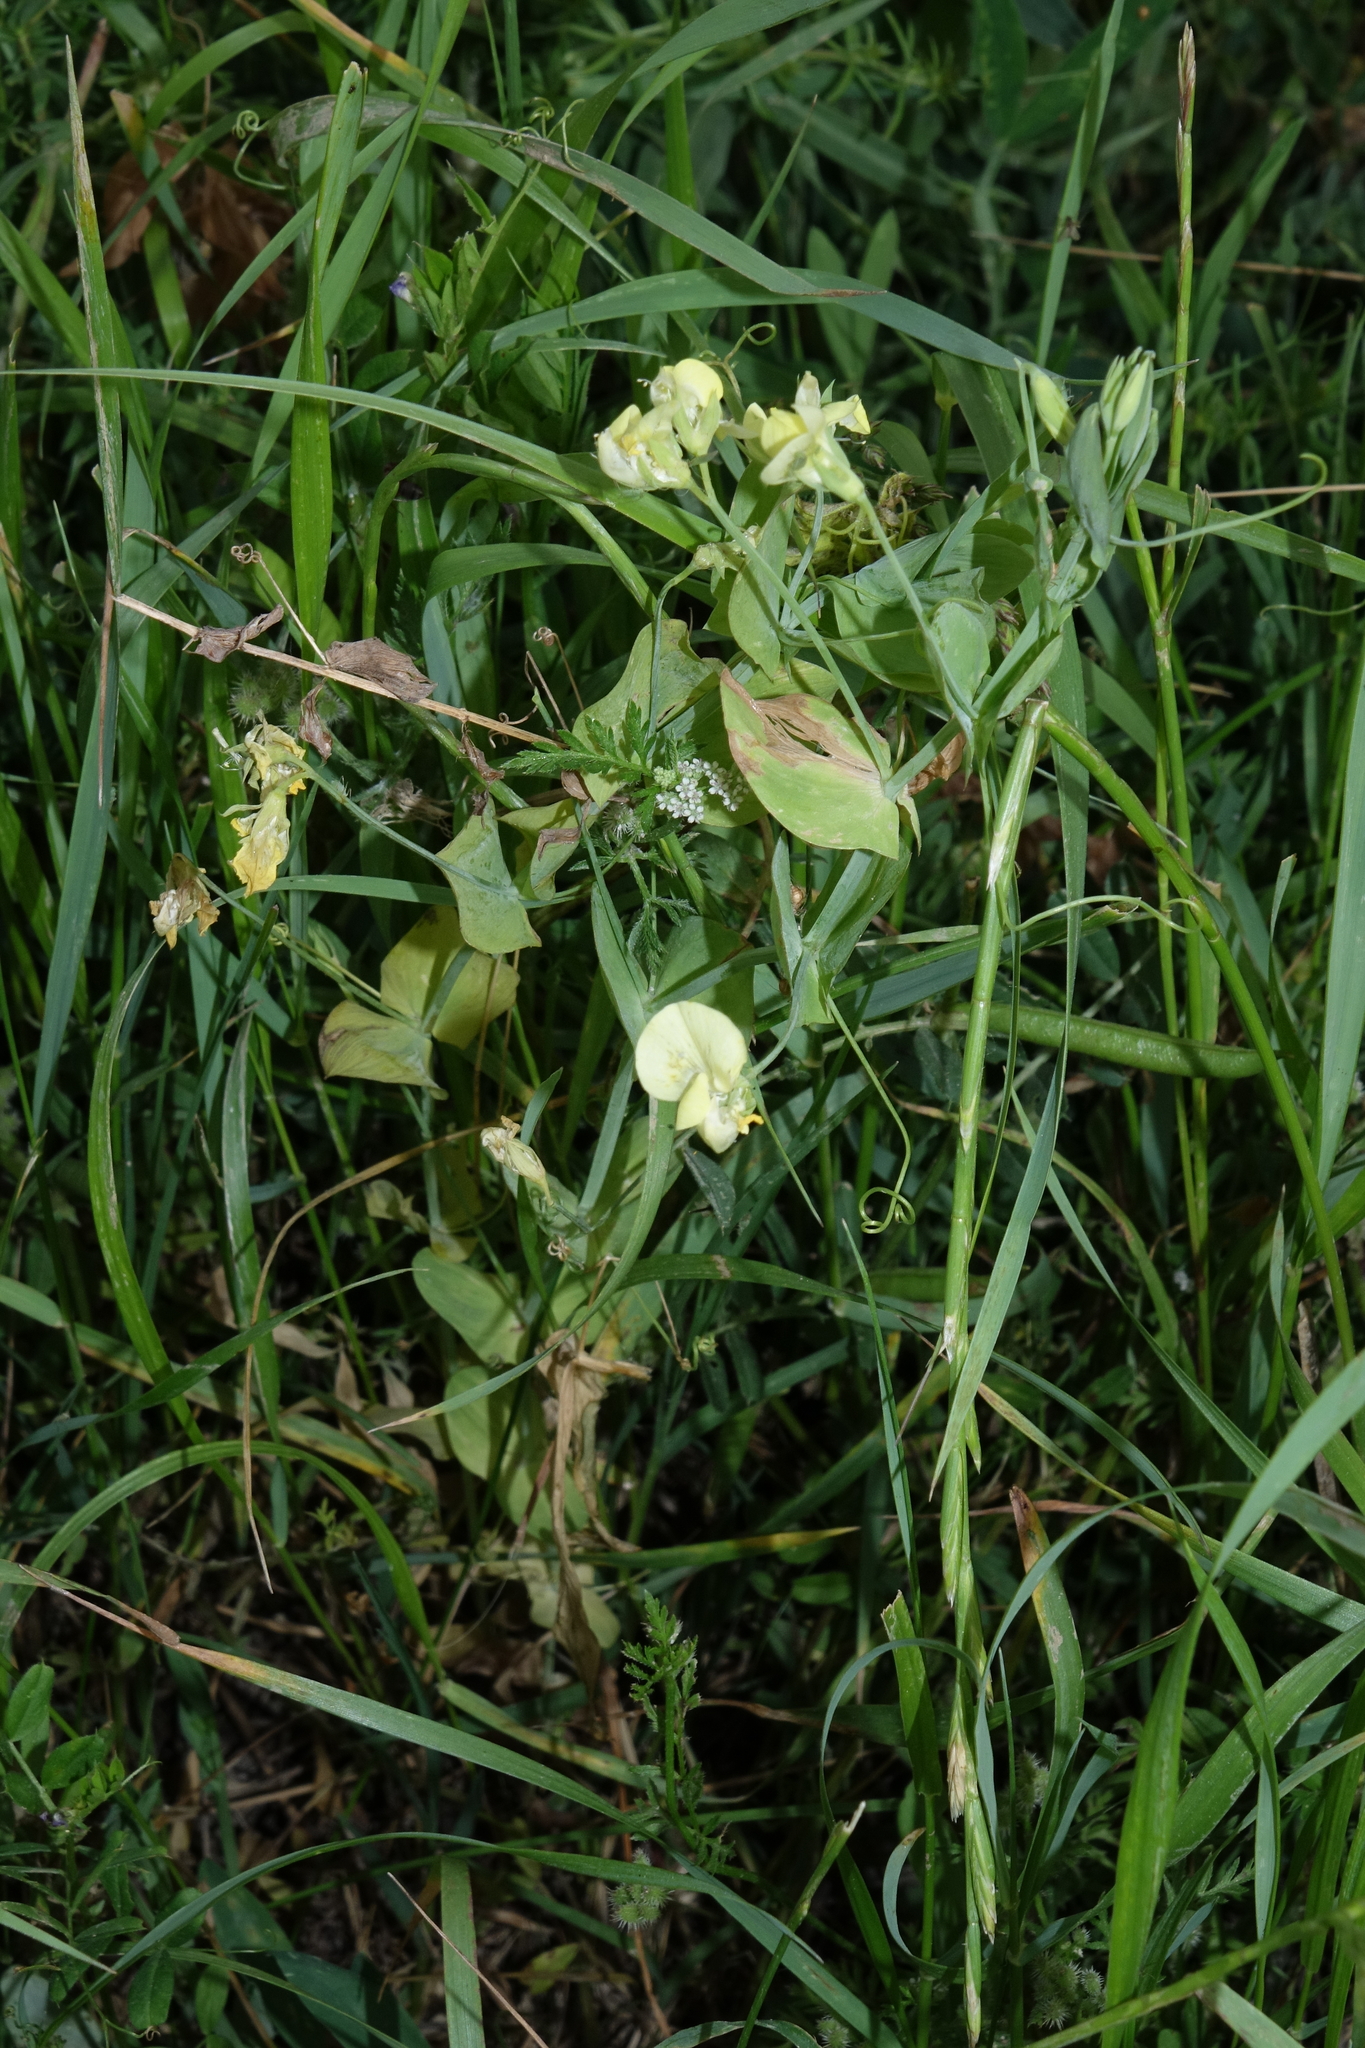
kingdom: Plantae
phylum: Tracheophyta
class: Magnoliopsida
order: Fabales
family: Fabaceae
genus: Lathyrus
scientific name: Lathyrus aphaca
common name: Yellow vetchling
